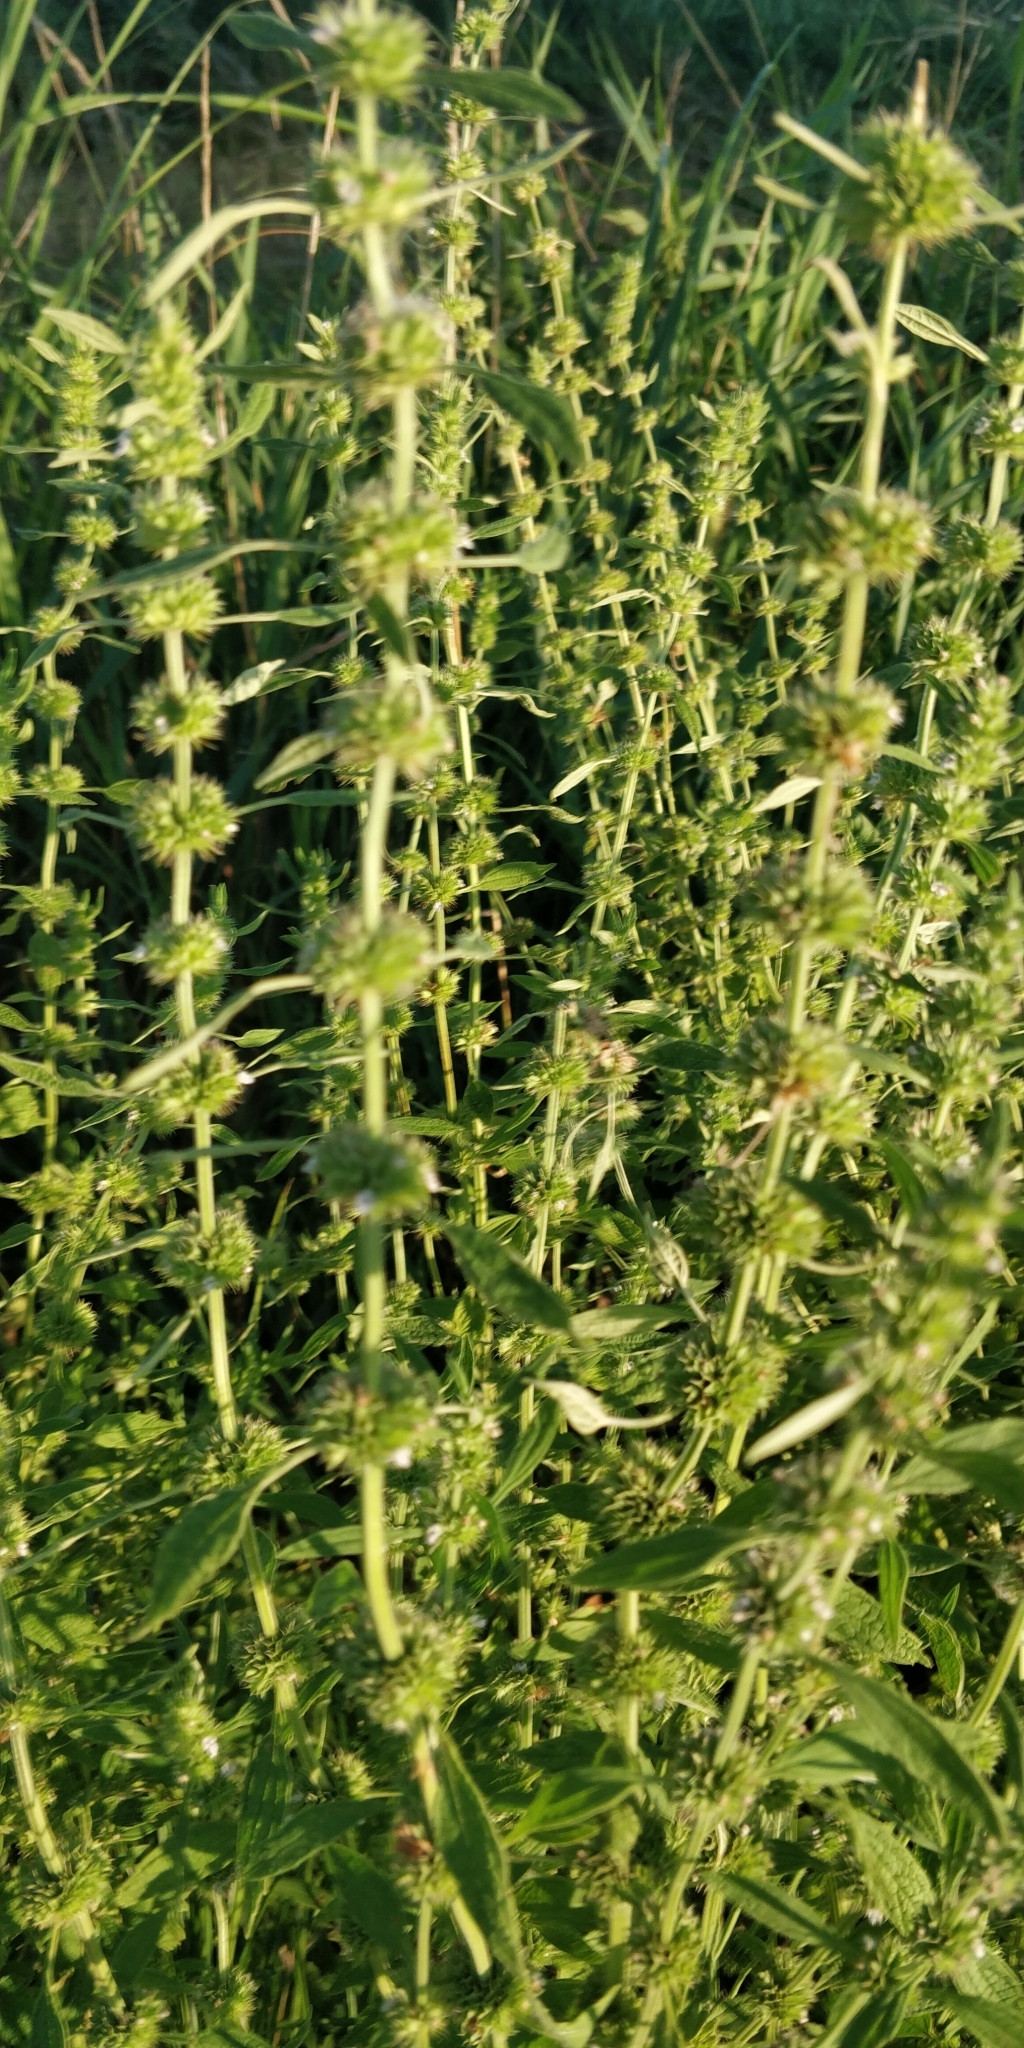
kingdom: Plantae
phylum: Tracheophyta
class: Magnoliopsida
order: Lamiales
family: Lamiaceae
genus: Chaiturus
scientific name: Chaiturus marrubiastrum
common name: Lion's tail
